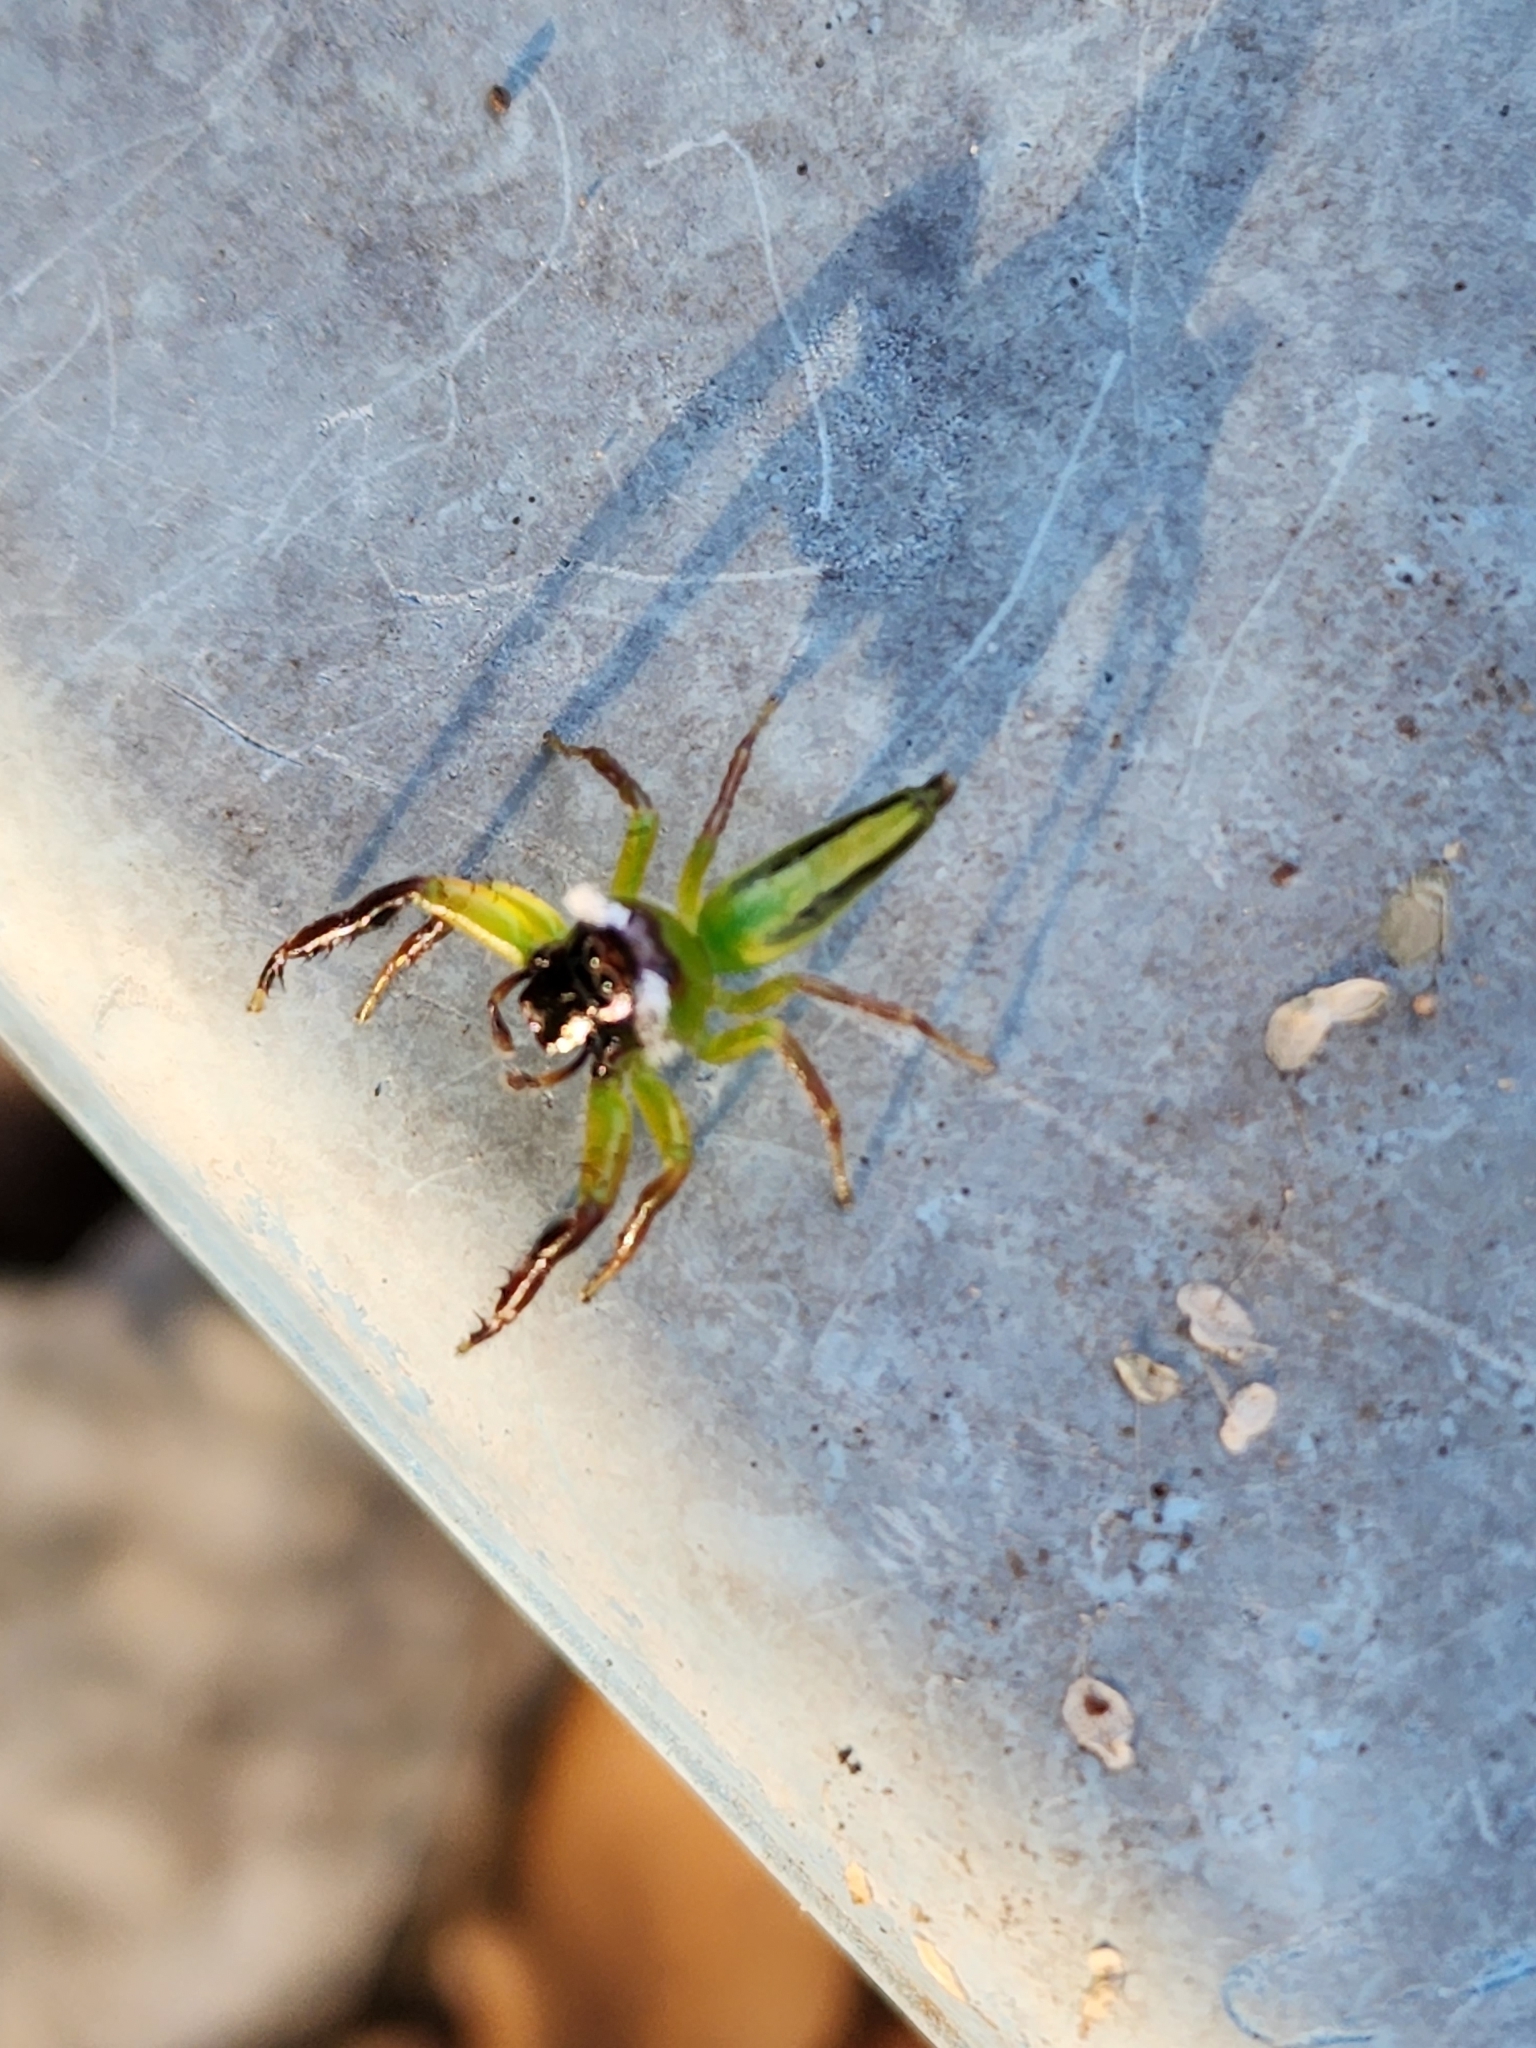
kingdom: Animalia
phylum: Arthropoda
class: Arachnida
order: Araneae
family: Salticidae
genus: Mopsus
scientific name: Mopsus mormon
